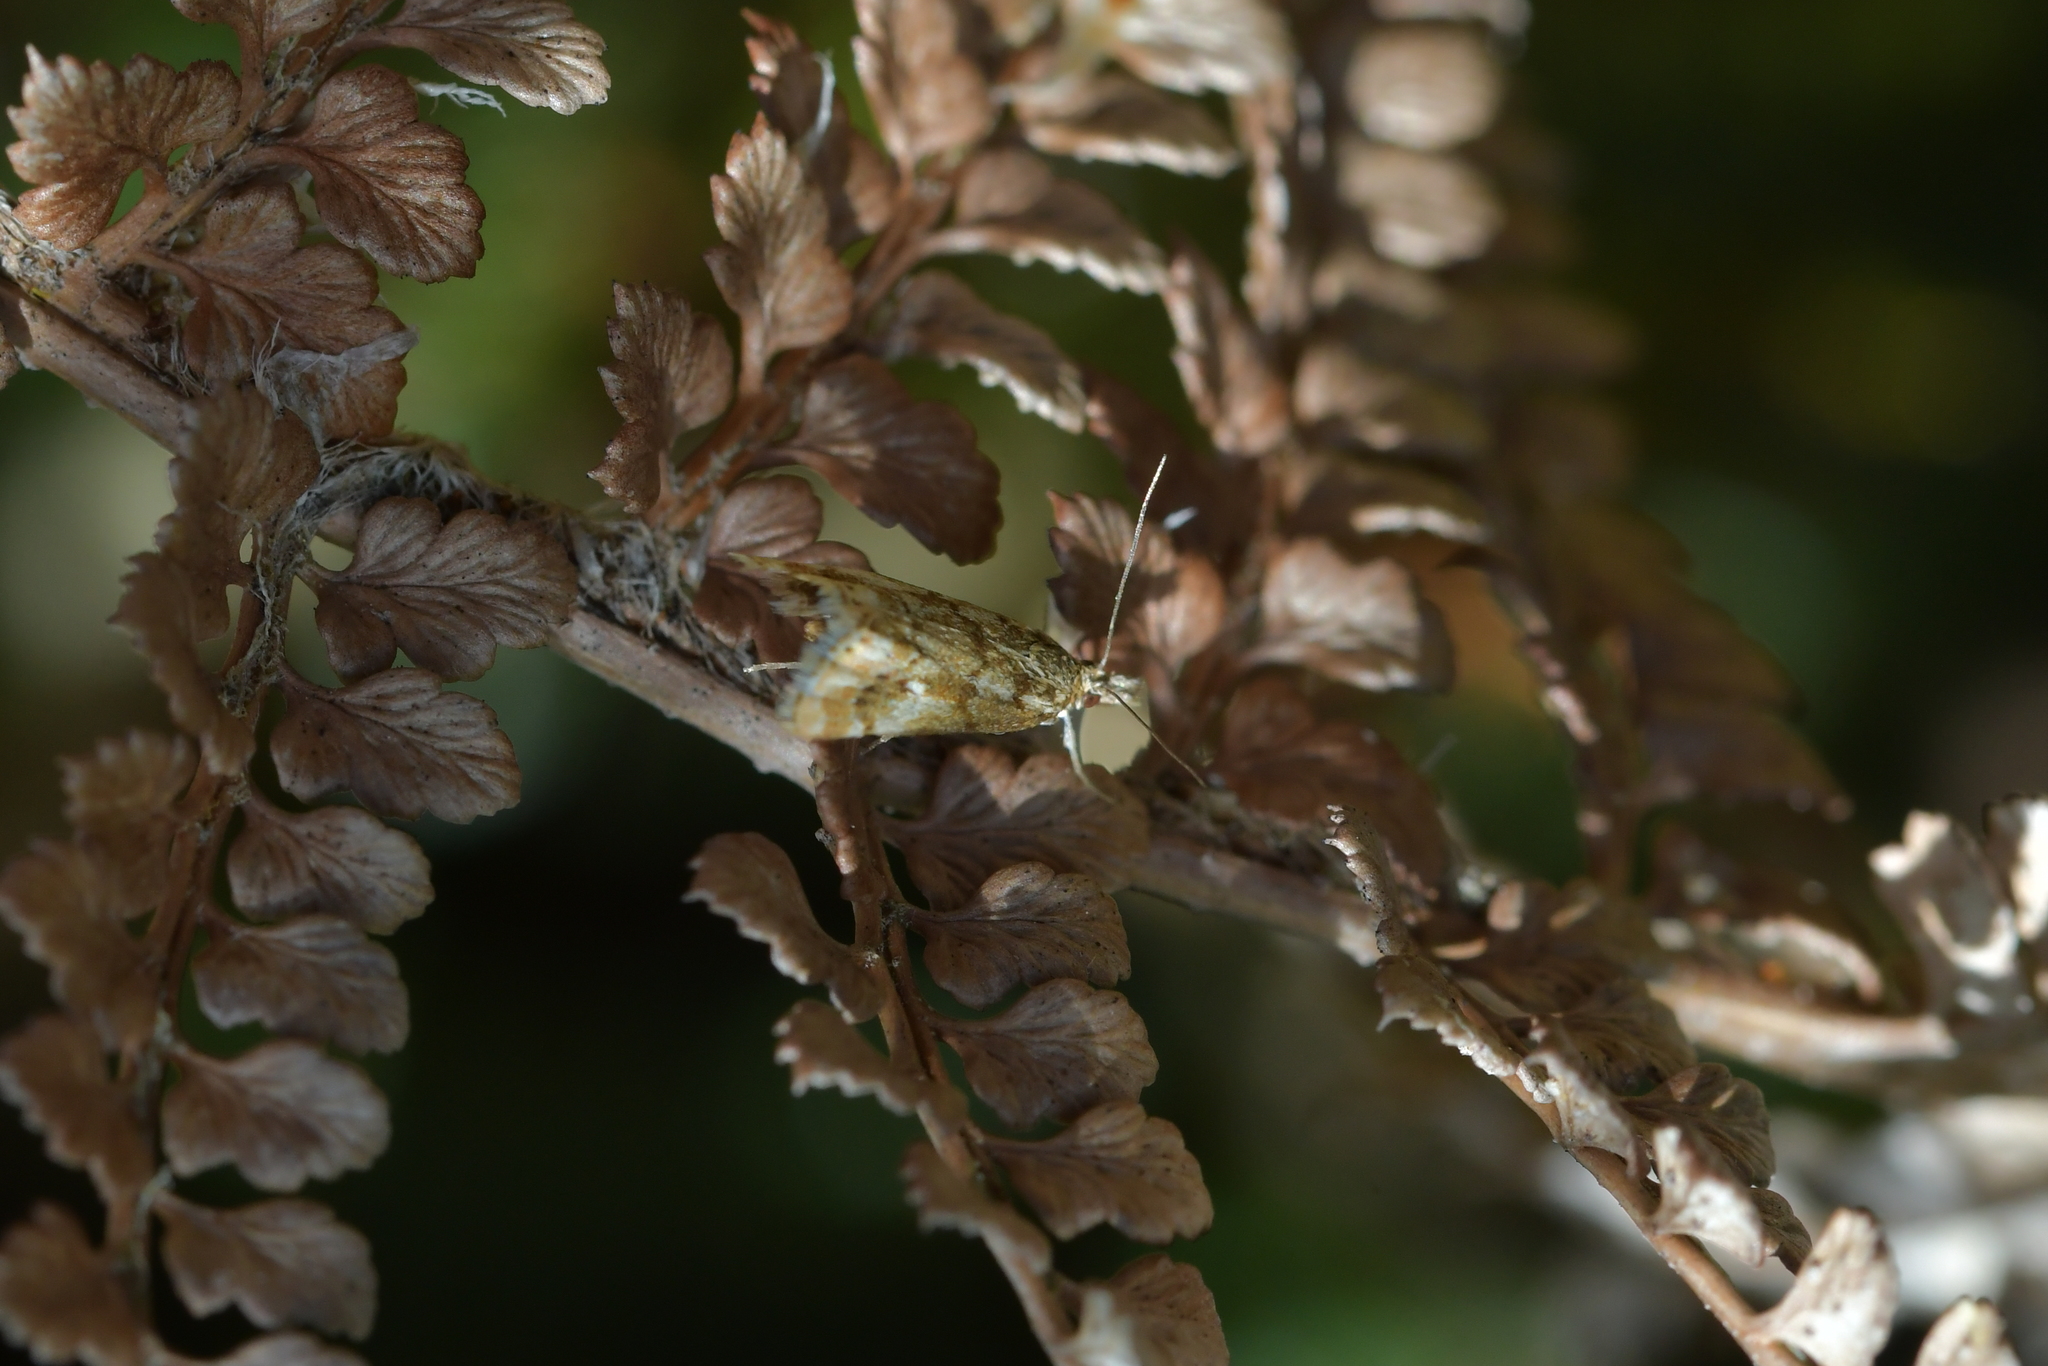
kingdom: Animalia
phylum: Arthropoda
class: Insecta
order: Lepidoptera
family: Crambidae
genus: Glaucocharis
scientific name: Glaucocharis helioctypa
